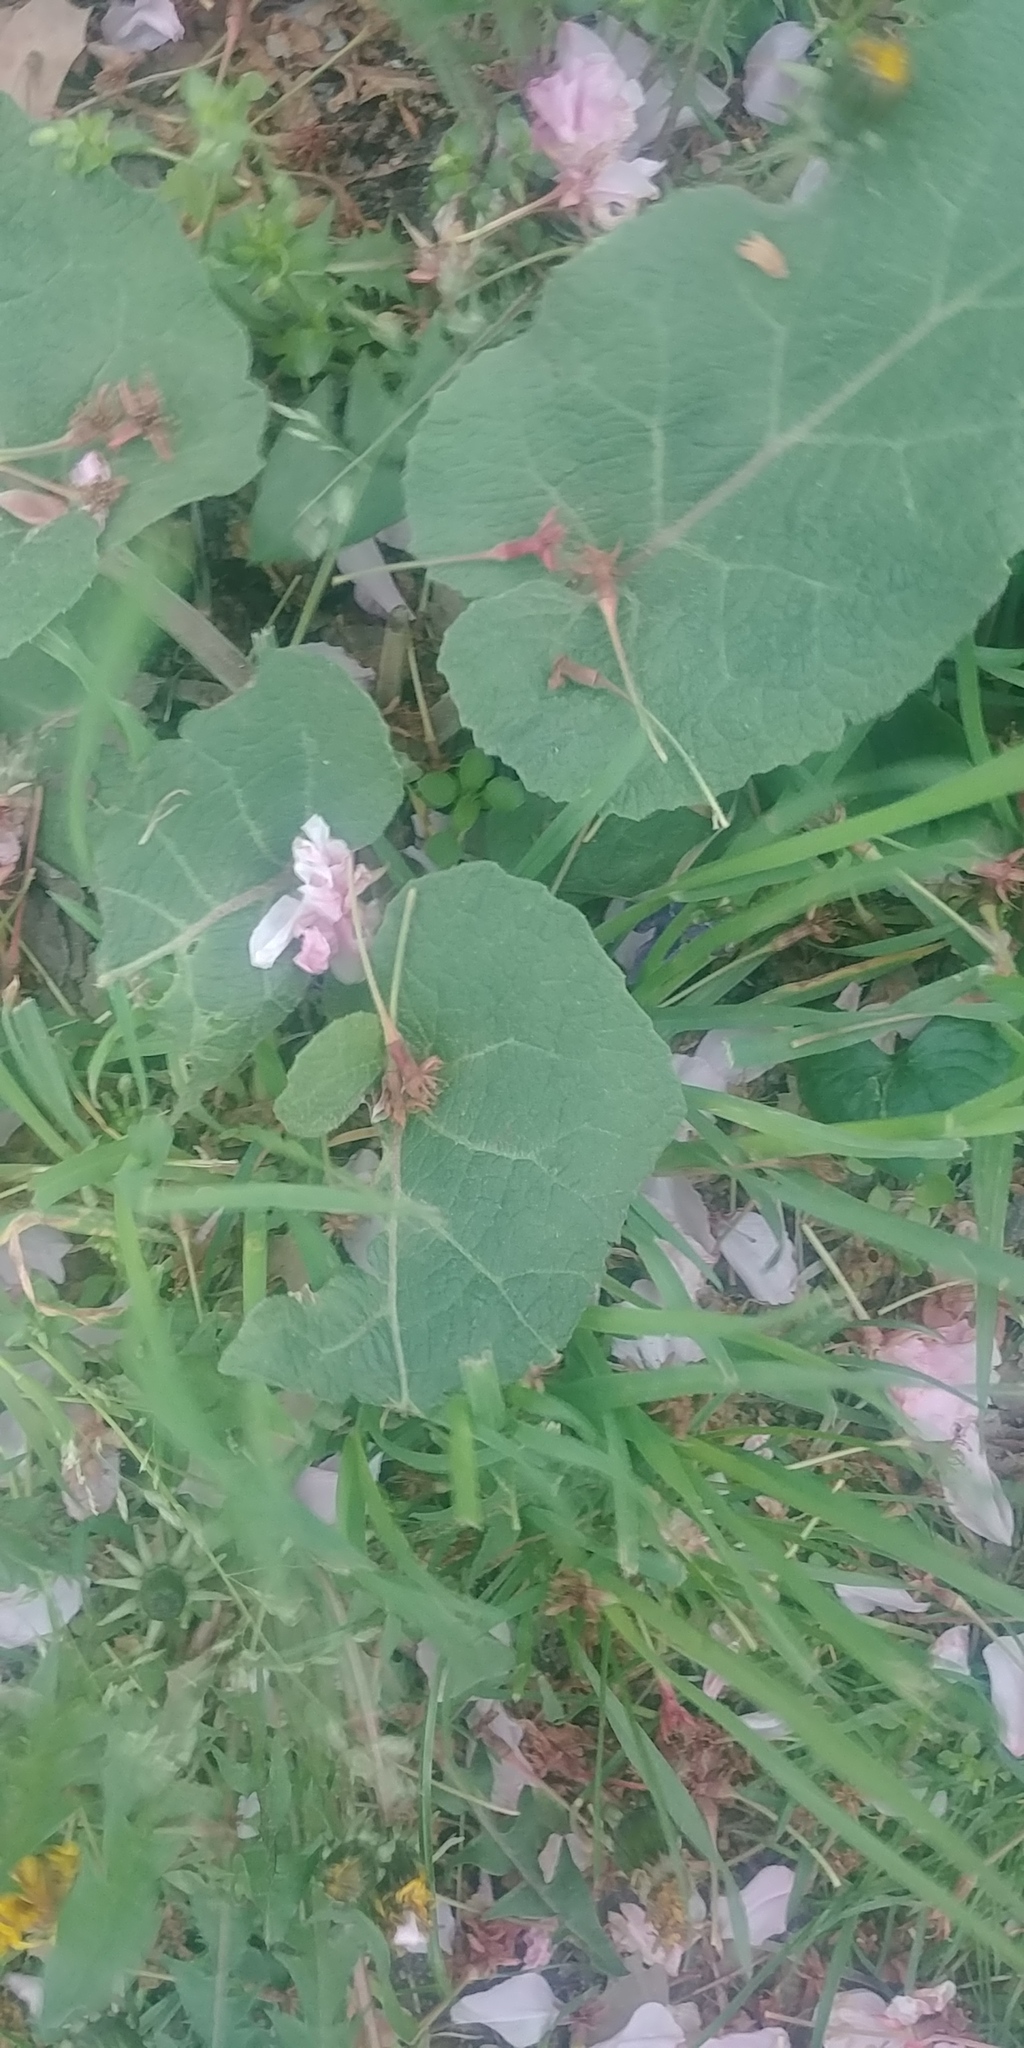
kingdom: Plantae
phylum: Tracheophyta
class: Magnoliopsida
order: Asterales
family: Asteraceae
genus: Arctium
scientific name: Arctium
